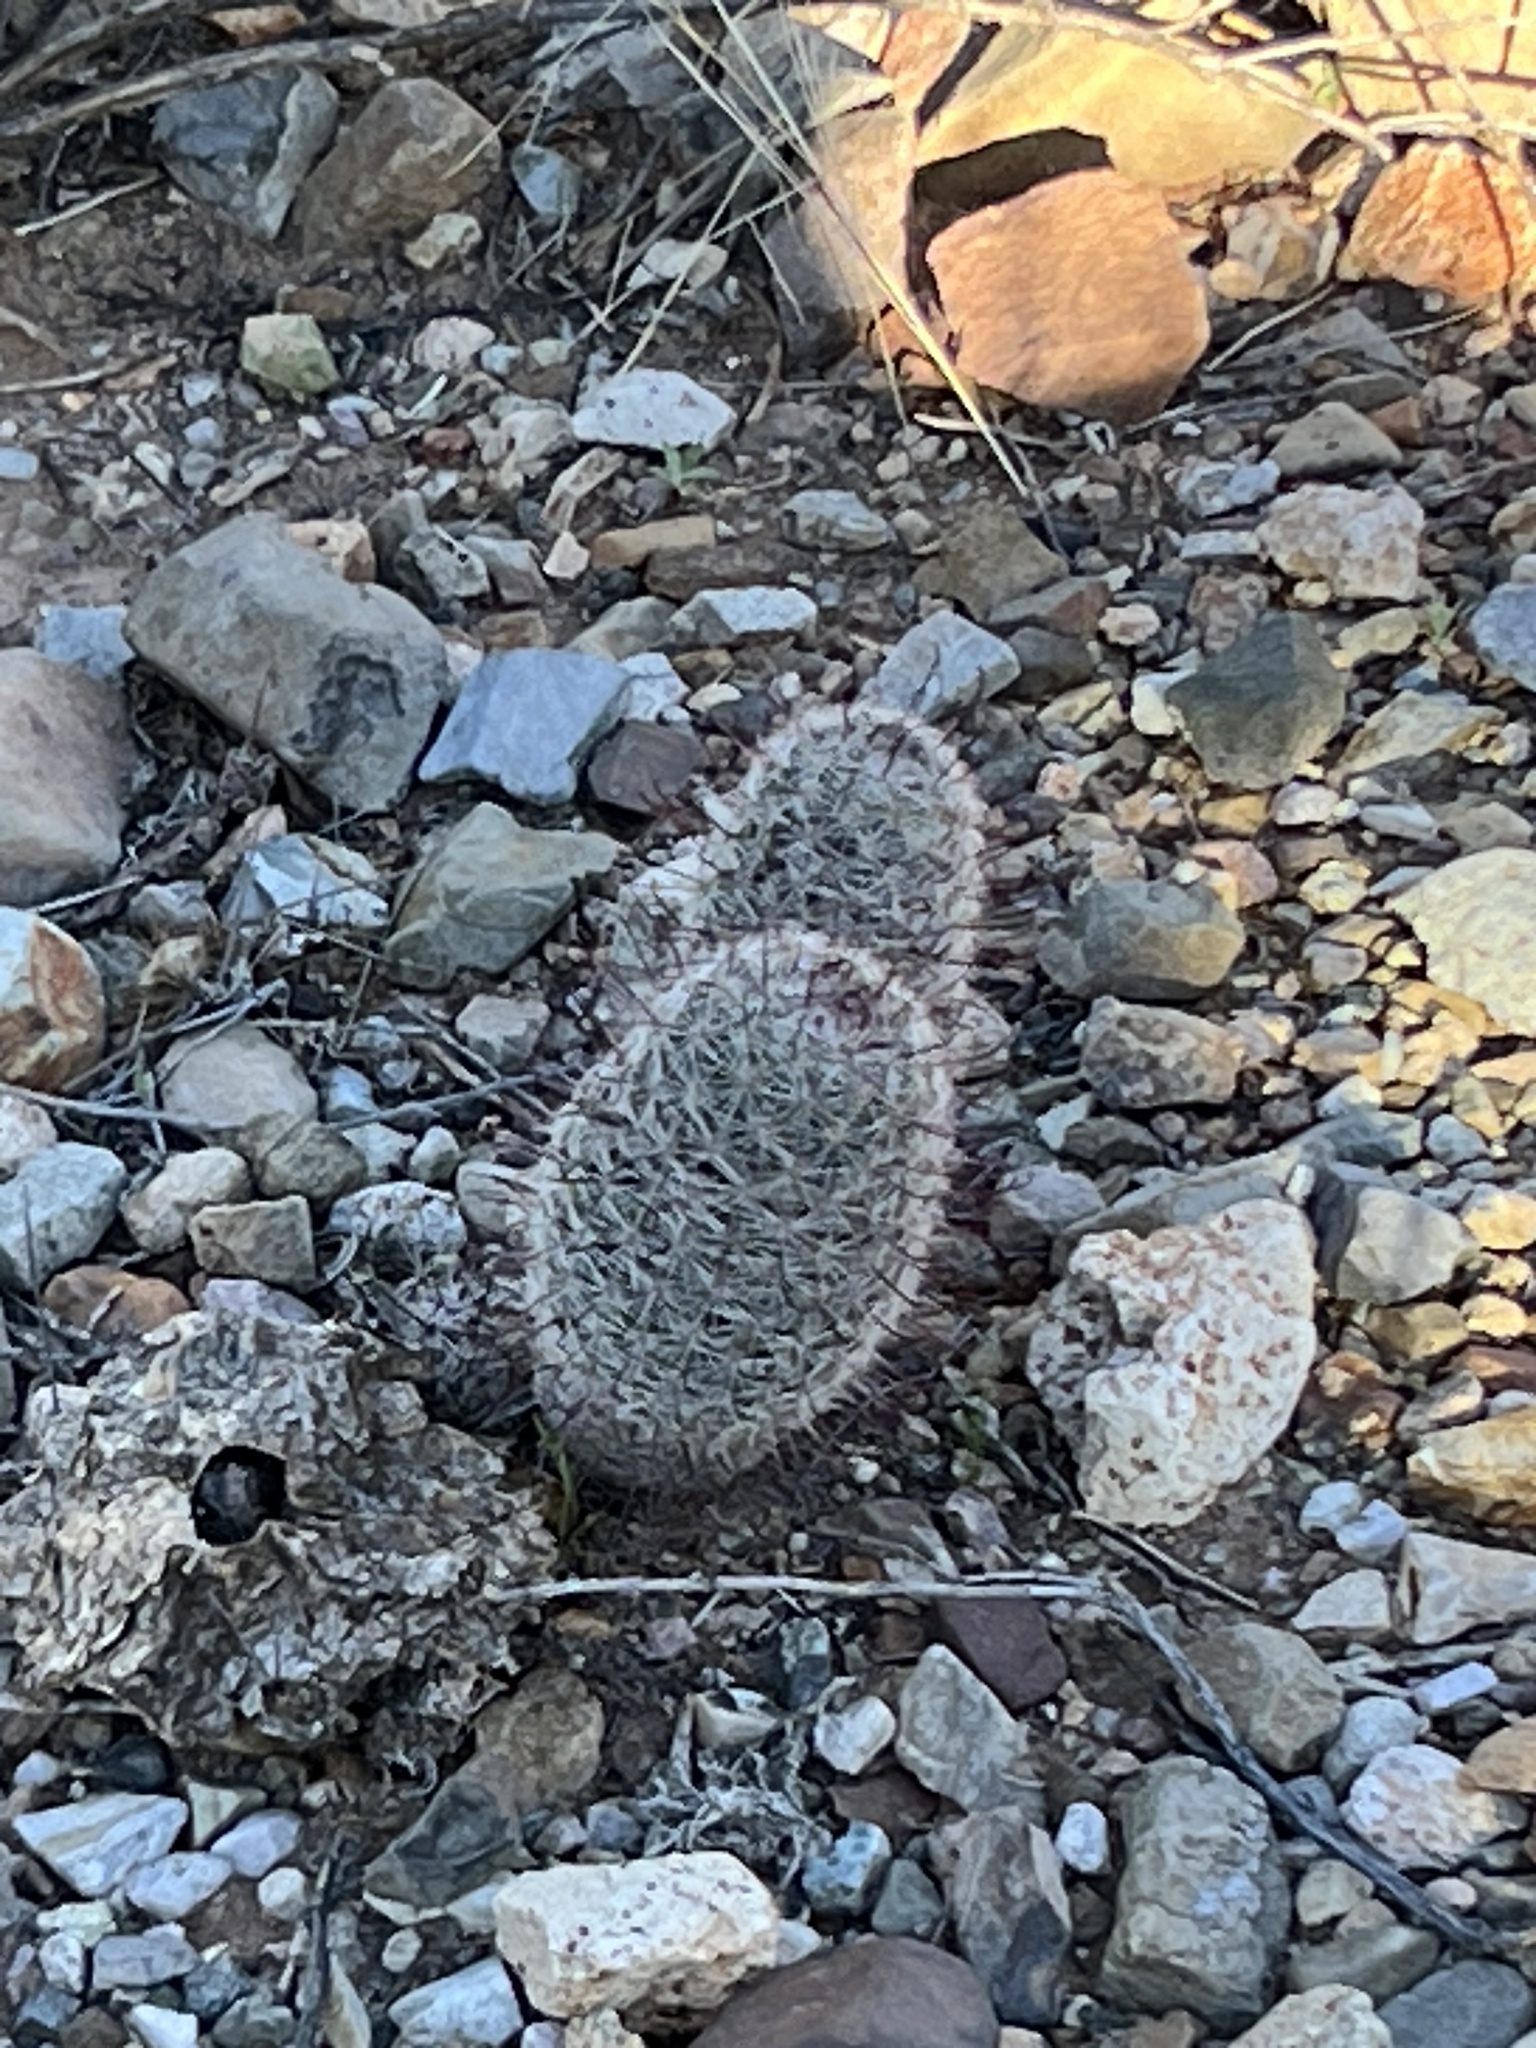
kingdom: Plantae
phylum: Tracheophyta
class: Magnoliopsida
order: Caryophyllales
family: Cactaceae
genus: Cochemiea
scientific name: Cochemiea grahamii
